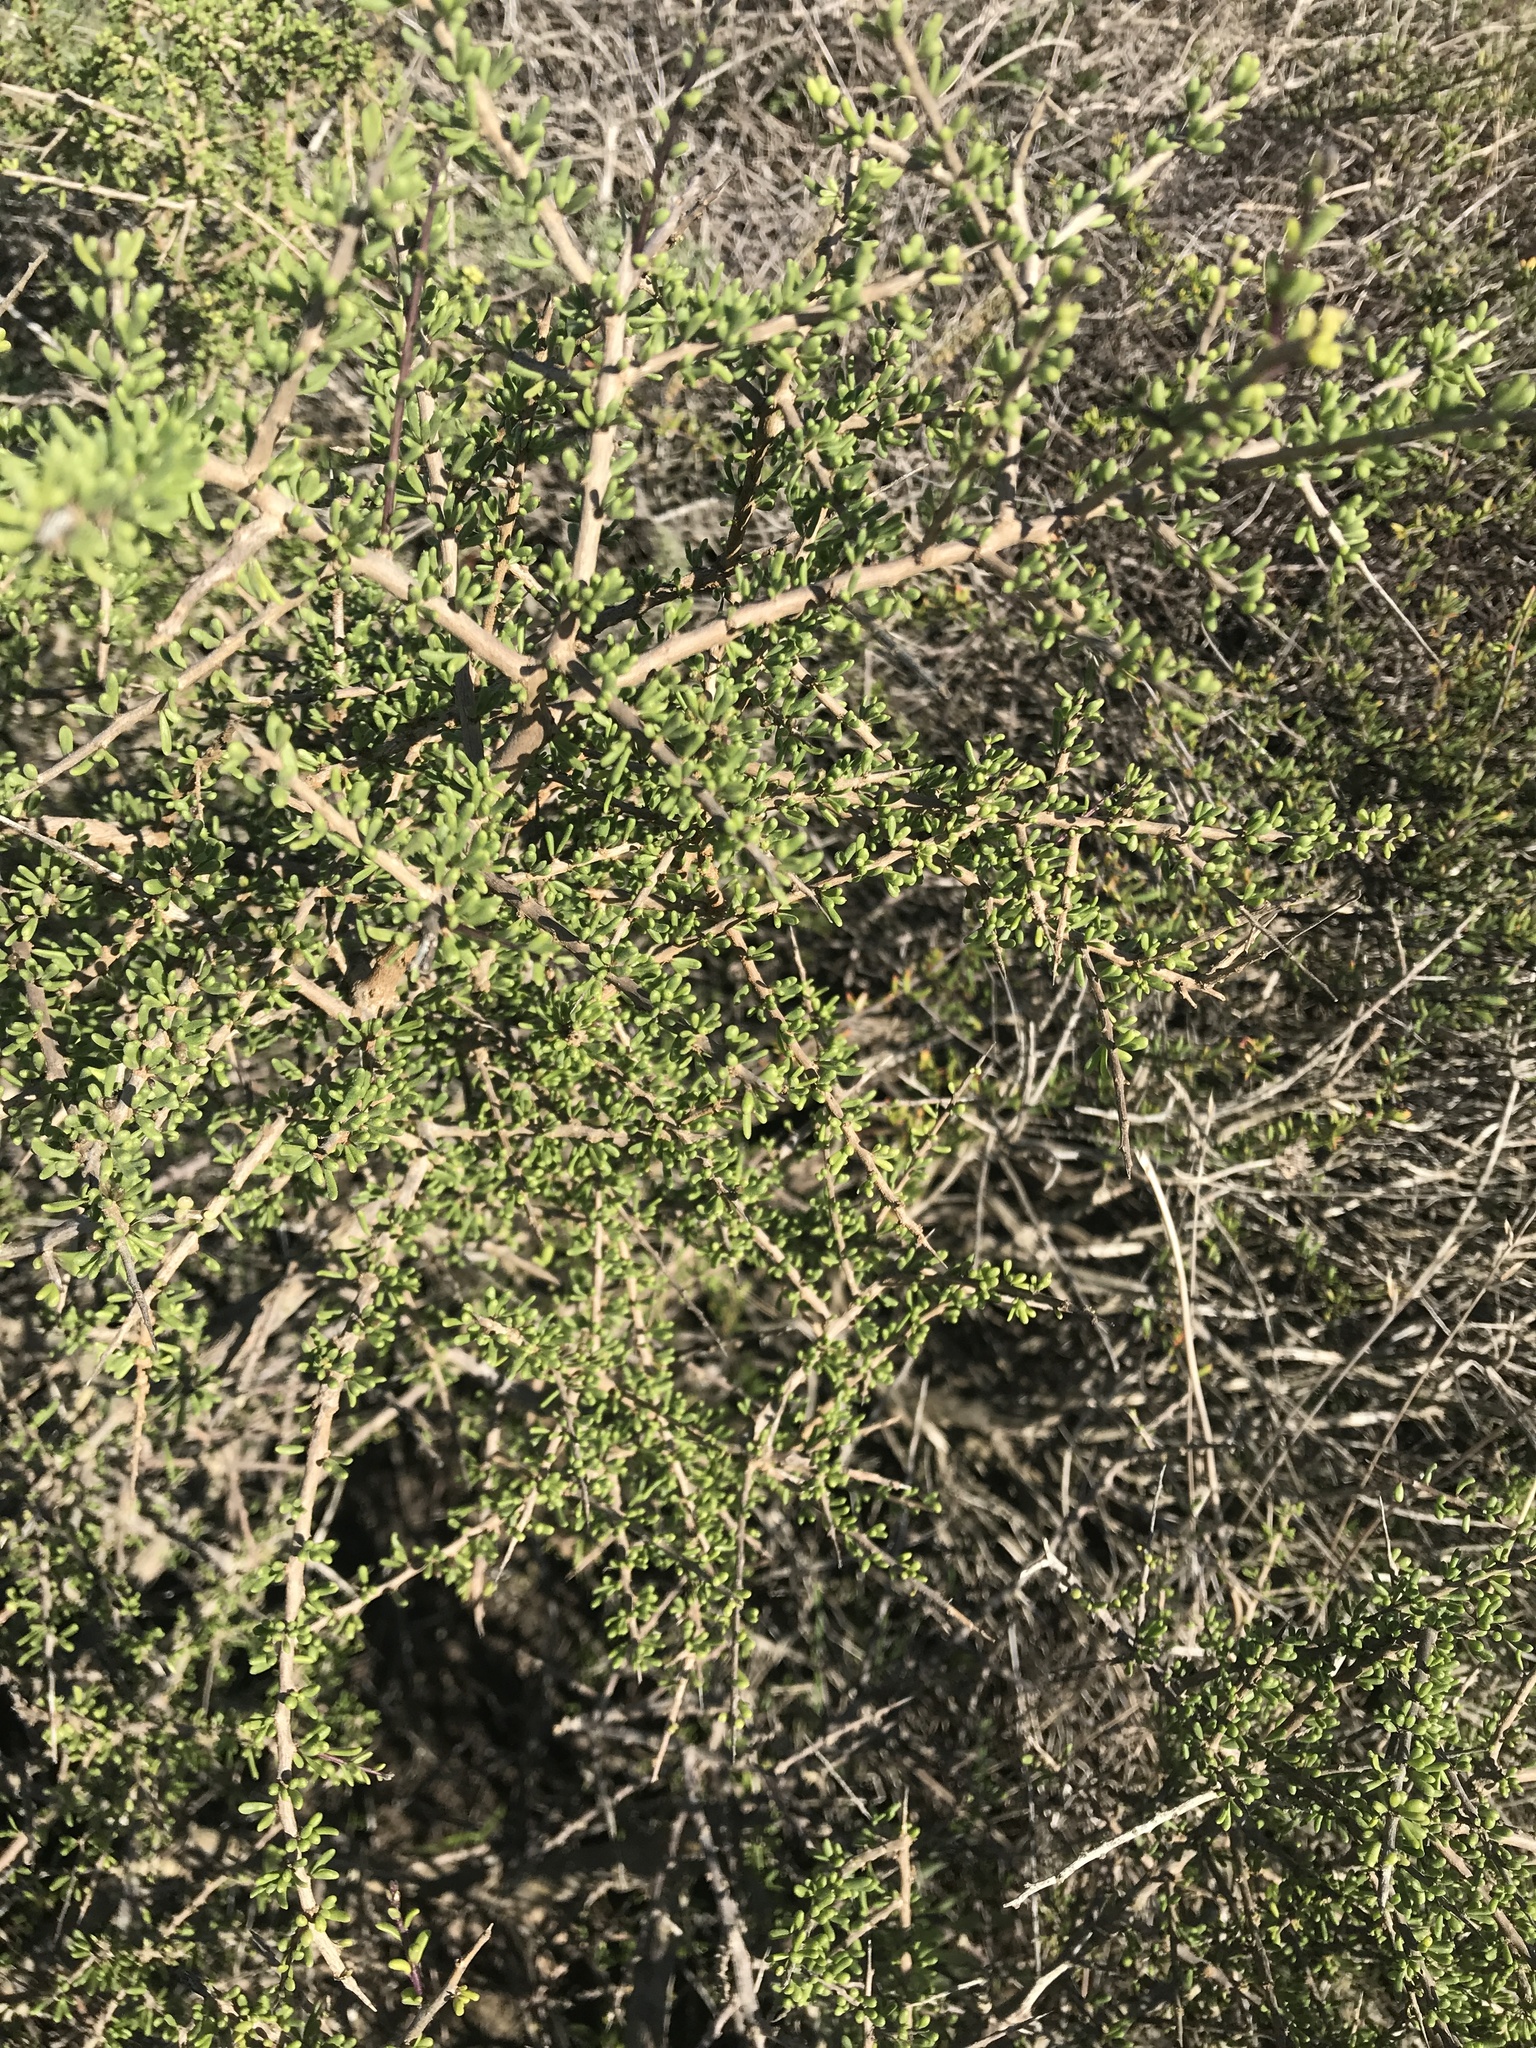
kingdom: Plantae
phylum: Tracheophyta
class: Magnoliopsida
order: Solanales
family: Solanaceae
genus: Lycium
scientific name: Lycium californicum
